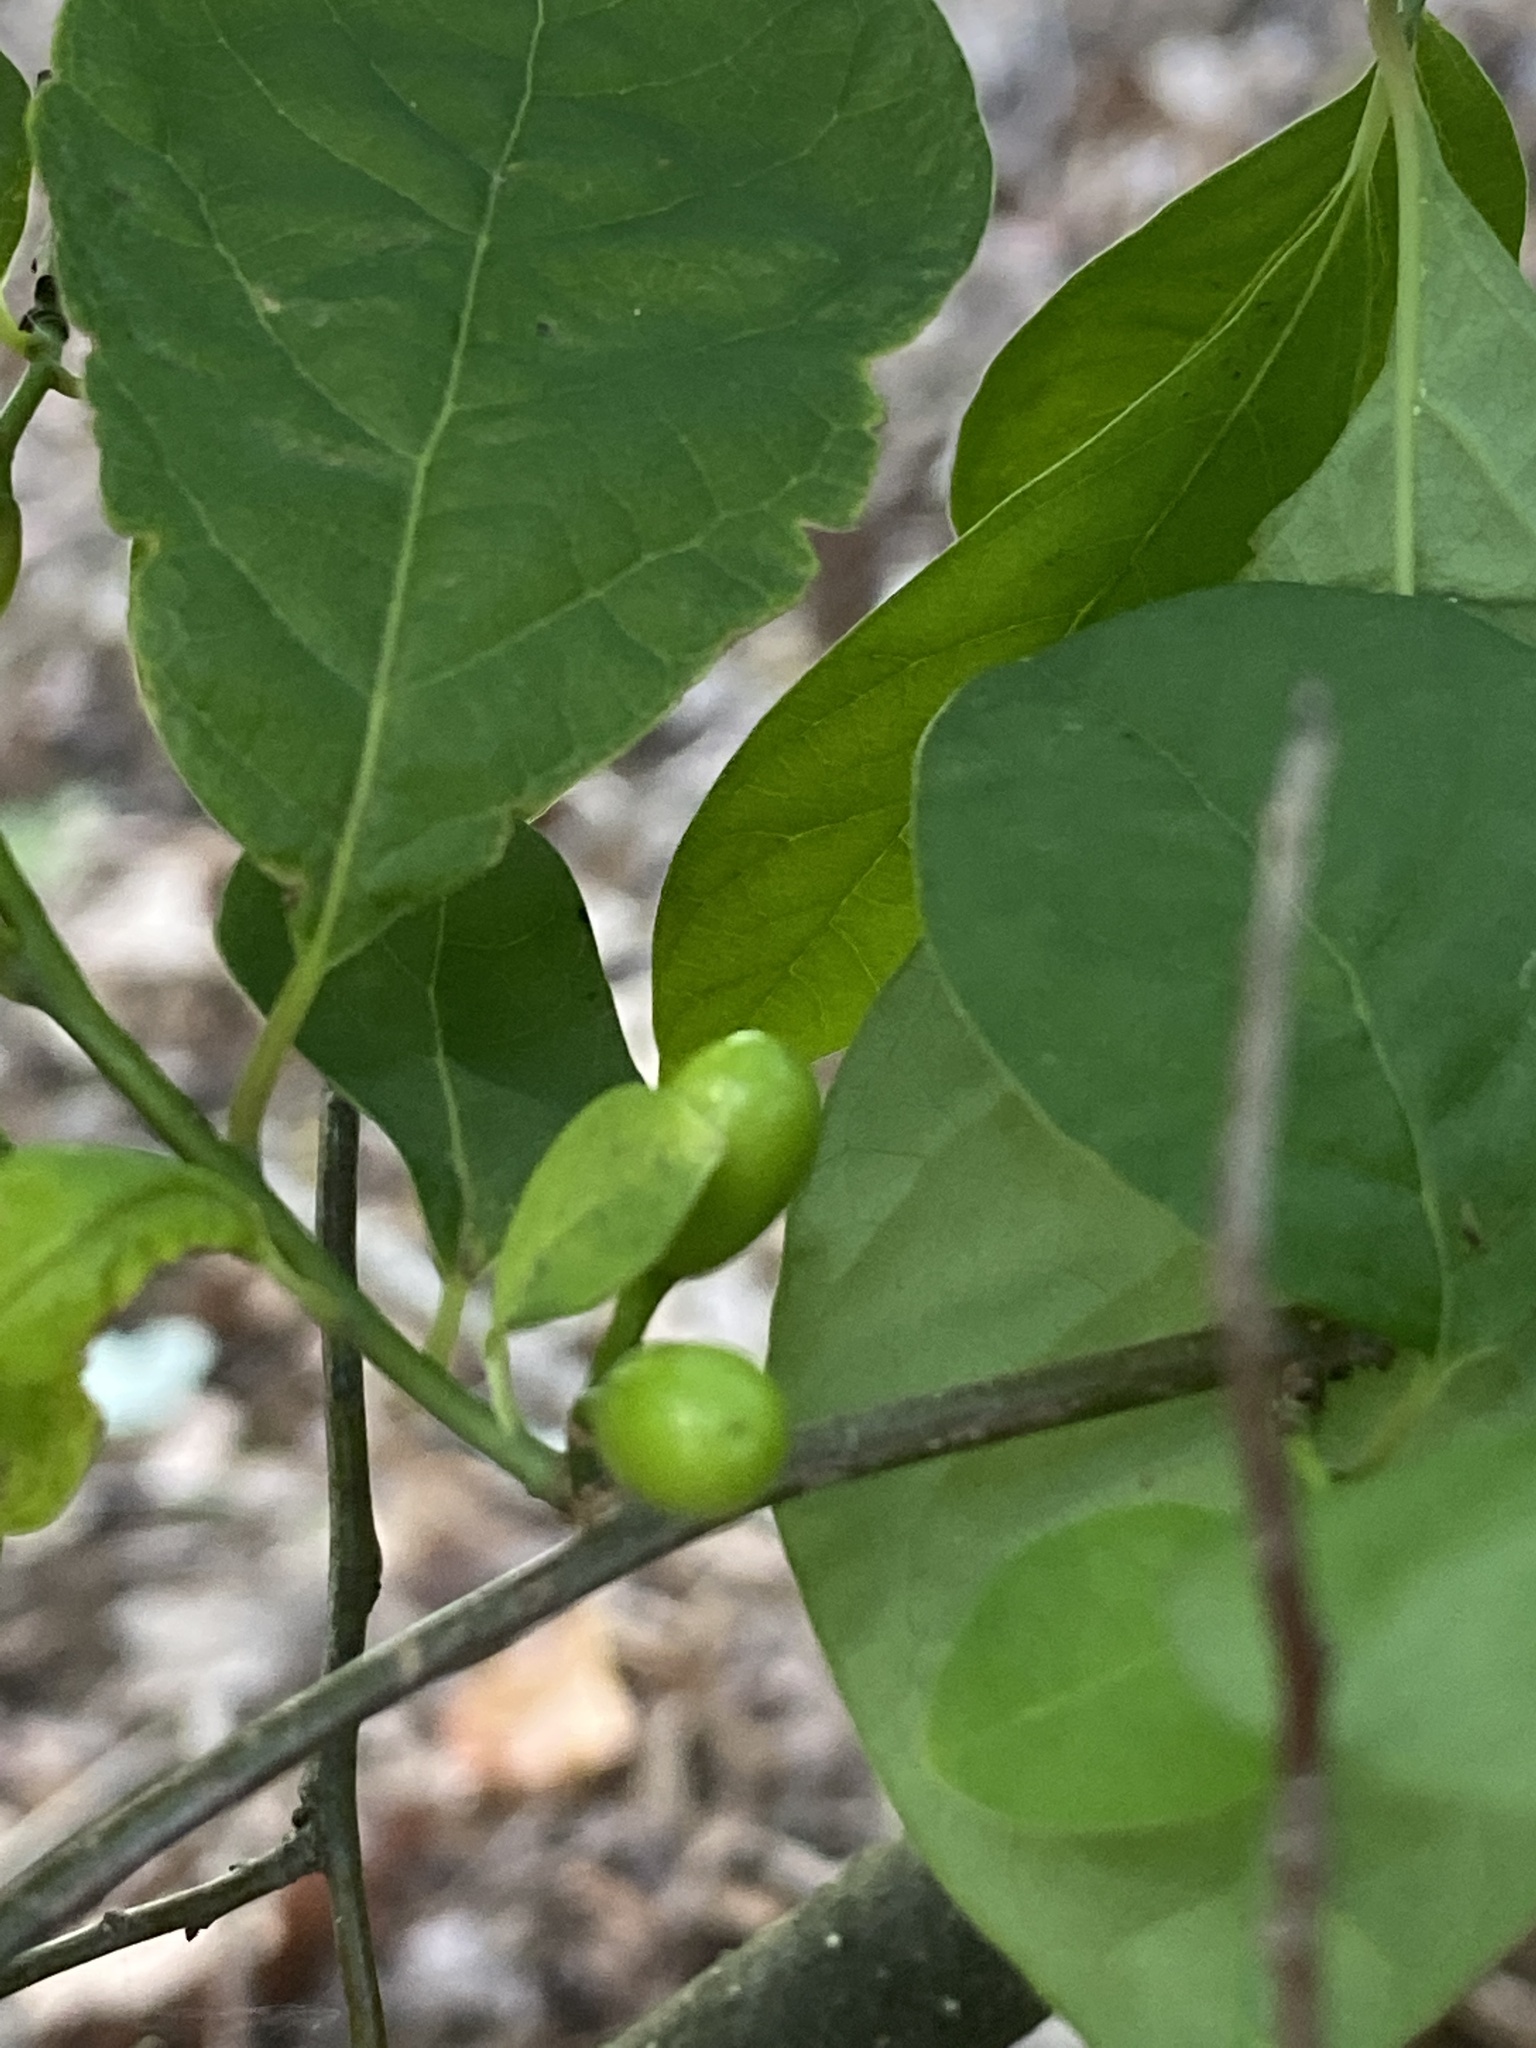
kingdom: Plantae
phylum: Tracheophyta
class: Magnoliopsida
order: Laurales
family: Lauraceae
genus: Lindera
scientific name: Lindera benzoin
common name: Spicebush
